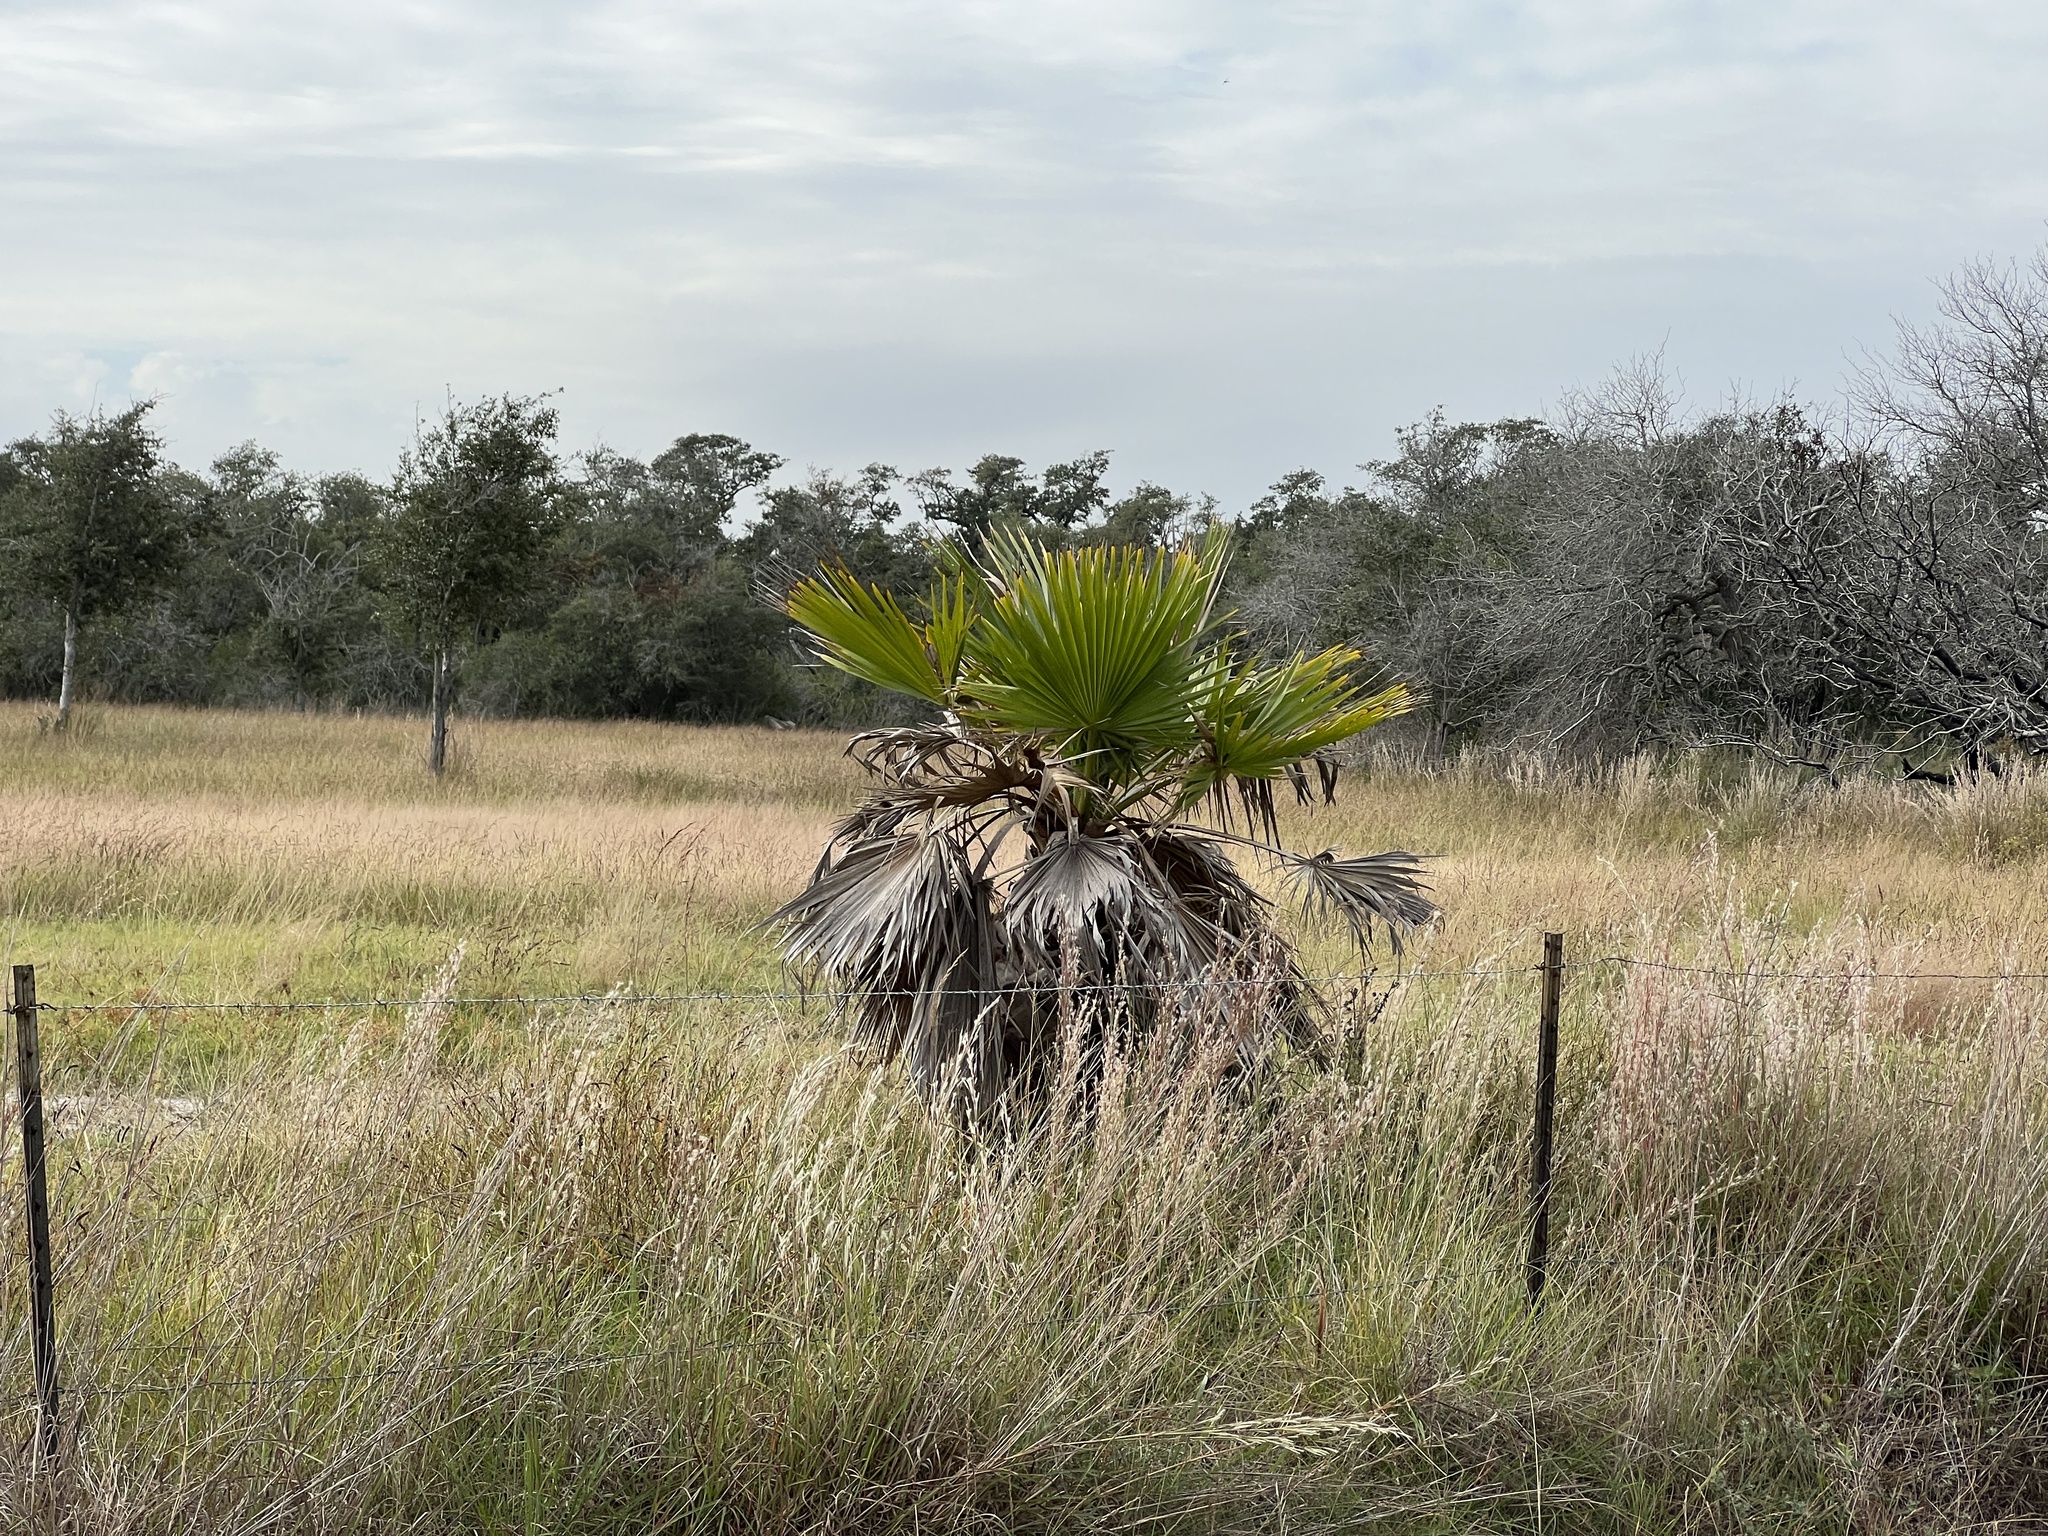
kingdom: Plantae
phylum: Tracheophyta
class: Liliopsida
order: Arecales
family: Arecaceae
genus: Washingtonia
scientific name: Washingtonia robusta
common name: Mexican fan palm
